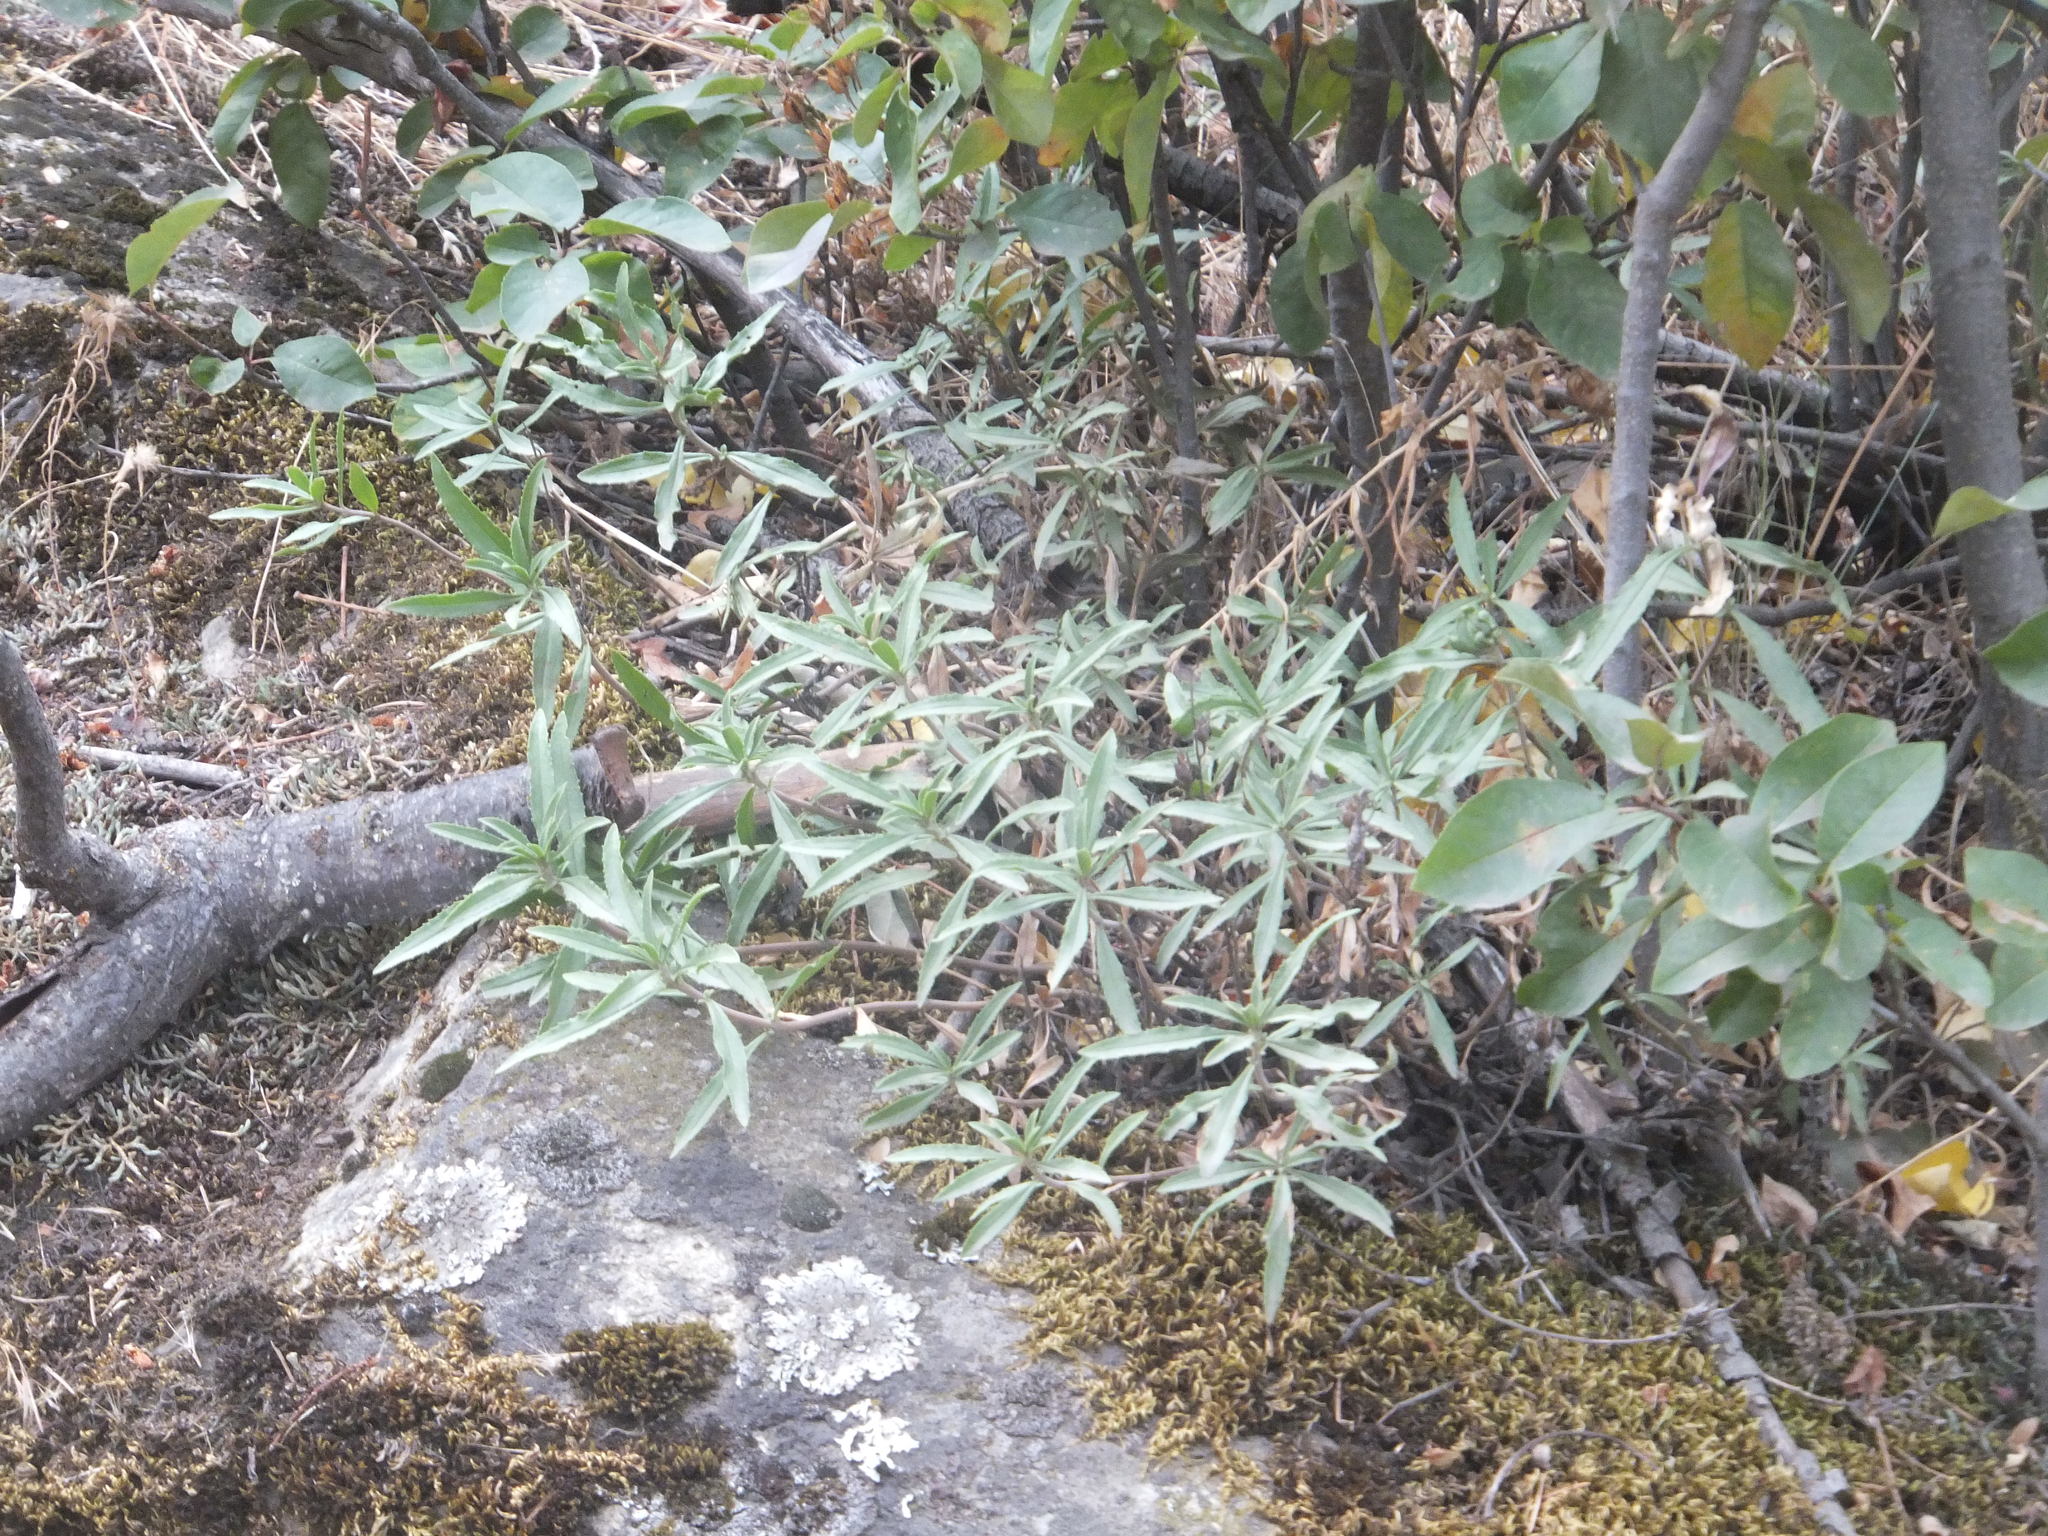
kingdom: Plantae
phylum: Tracheophyta
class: Magnoliopsida
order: Lamiales
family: Plantaginaceae
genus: Penstemon
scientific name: Penstemon fruticosus
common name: Bush penstemon
